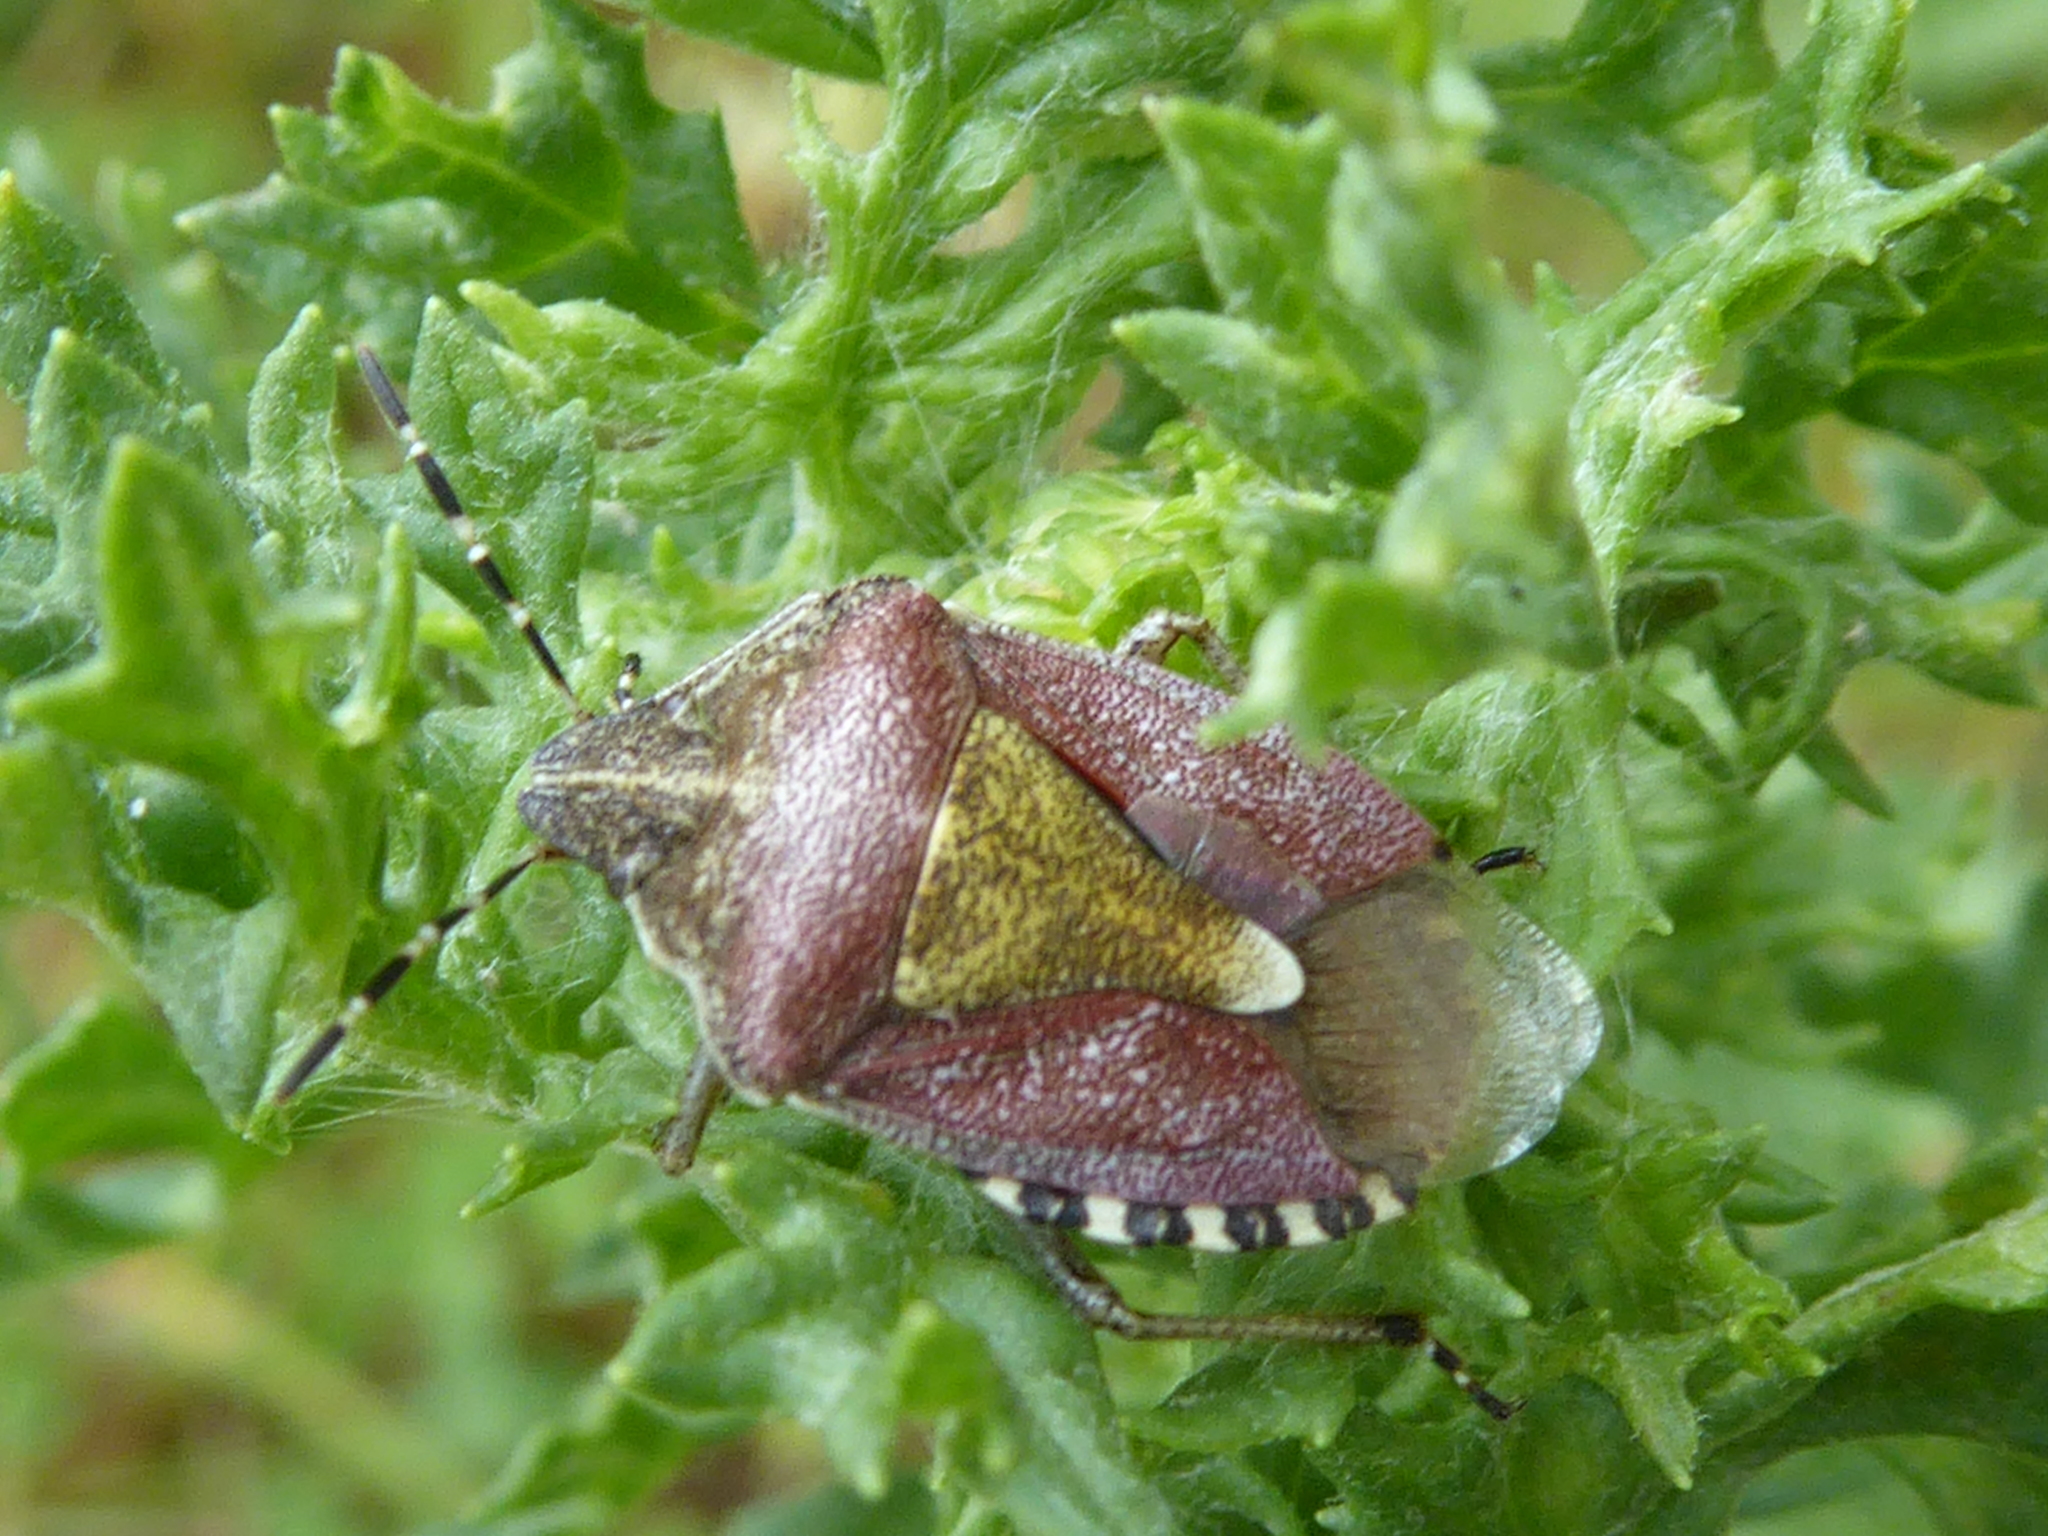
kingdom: Animalia
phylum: Arthropoda
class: Insecta
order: Hemiptera
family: Pentatomidae
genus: Dolycoris
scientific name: Dolycoris baccarum
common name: Sloe bug
